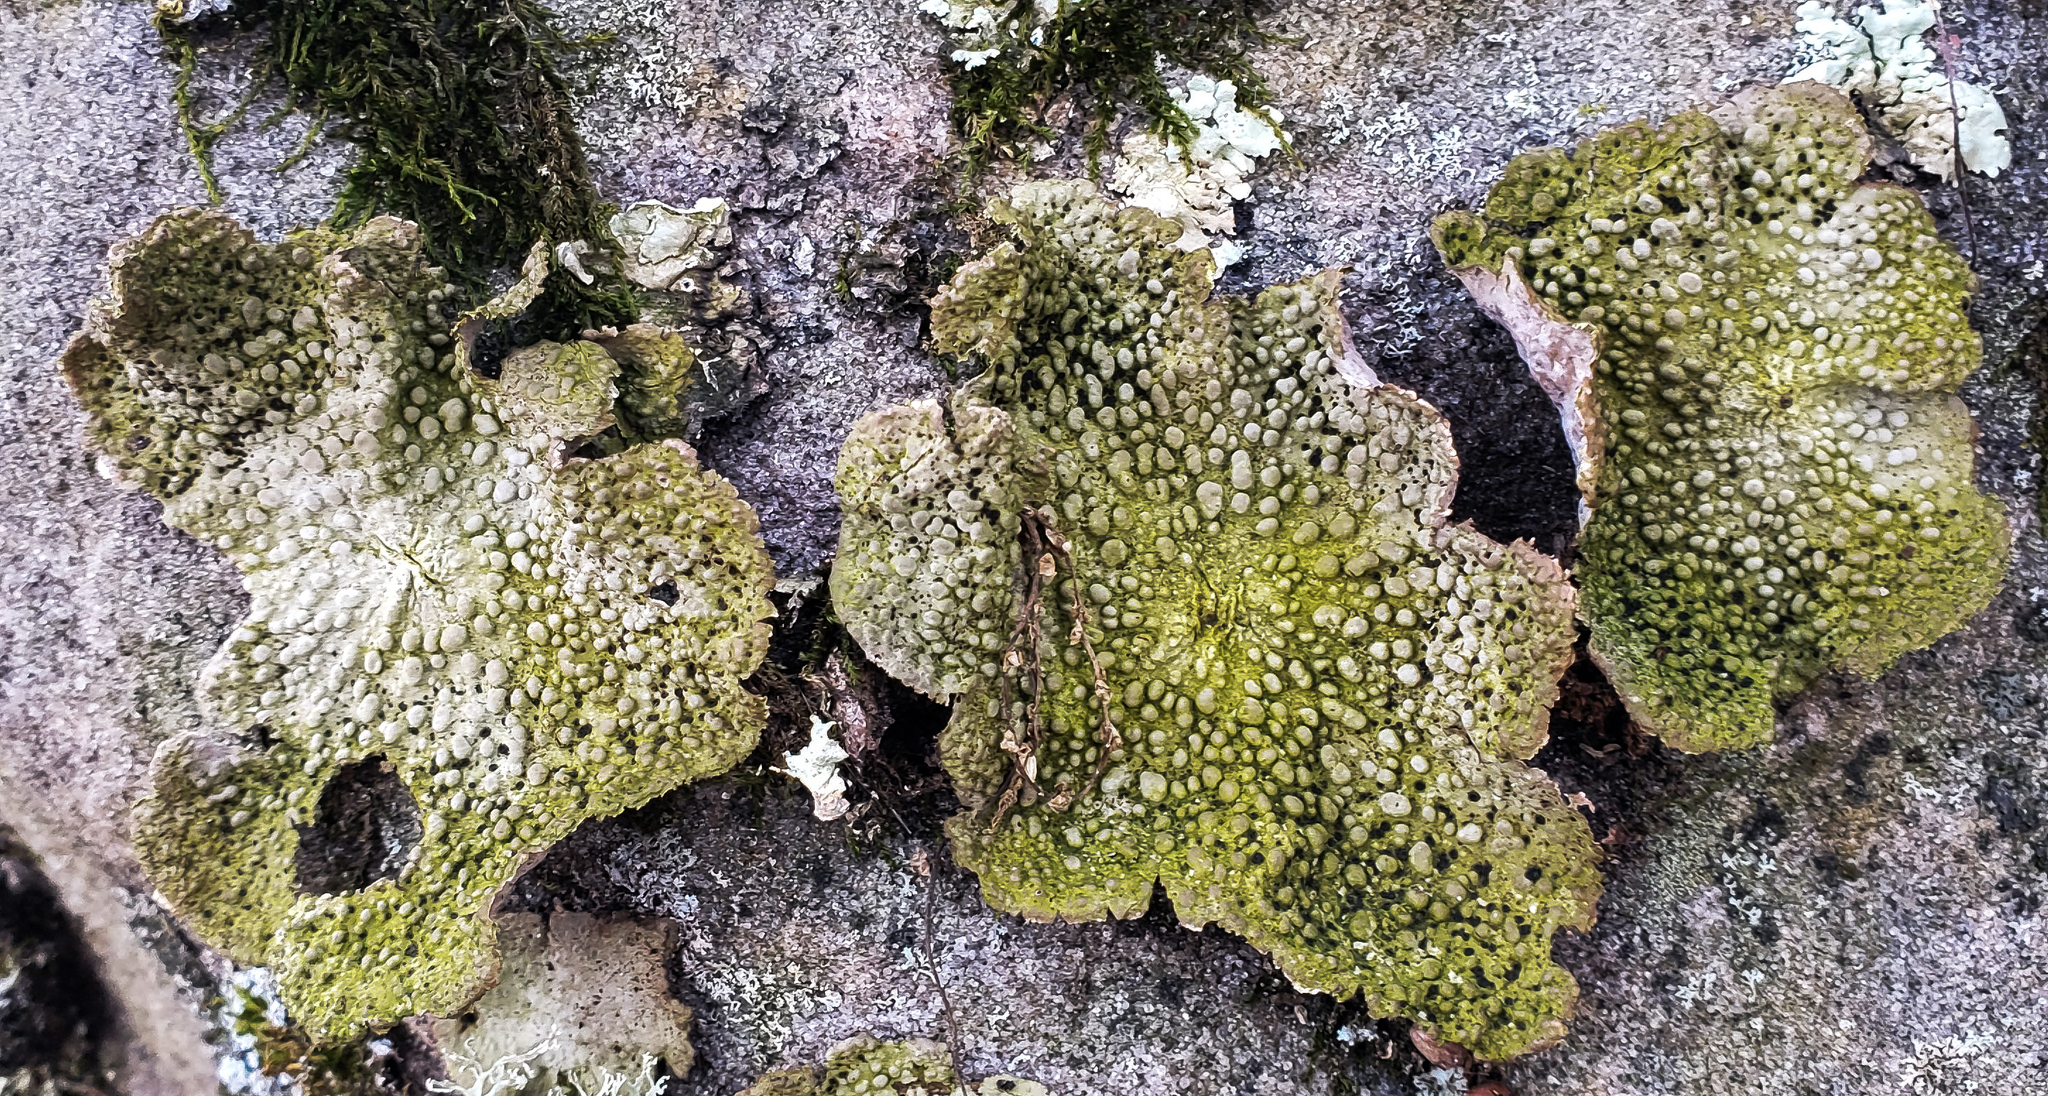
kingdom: Fungi
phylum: Ascomycota
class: Lecanoromycetes
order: Umbilicariales
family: Umbilicariaceae
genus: Lasallia
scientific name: Lasallia papulosa
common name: Common toadskin lichen
